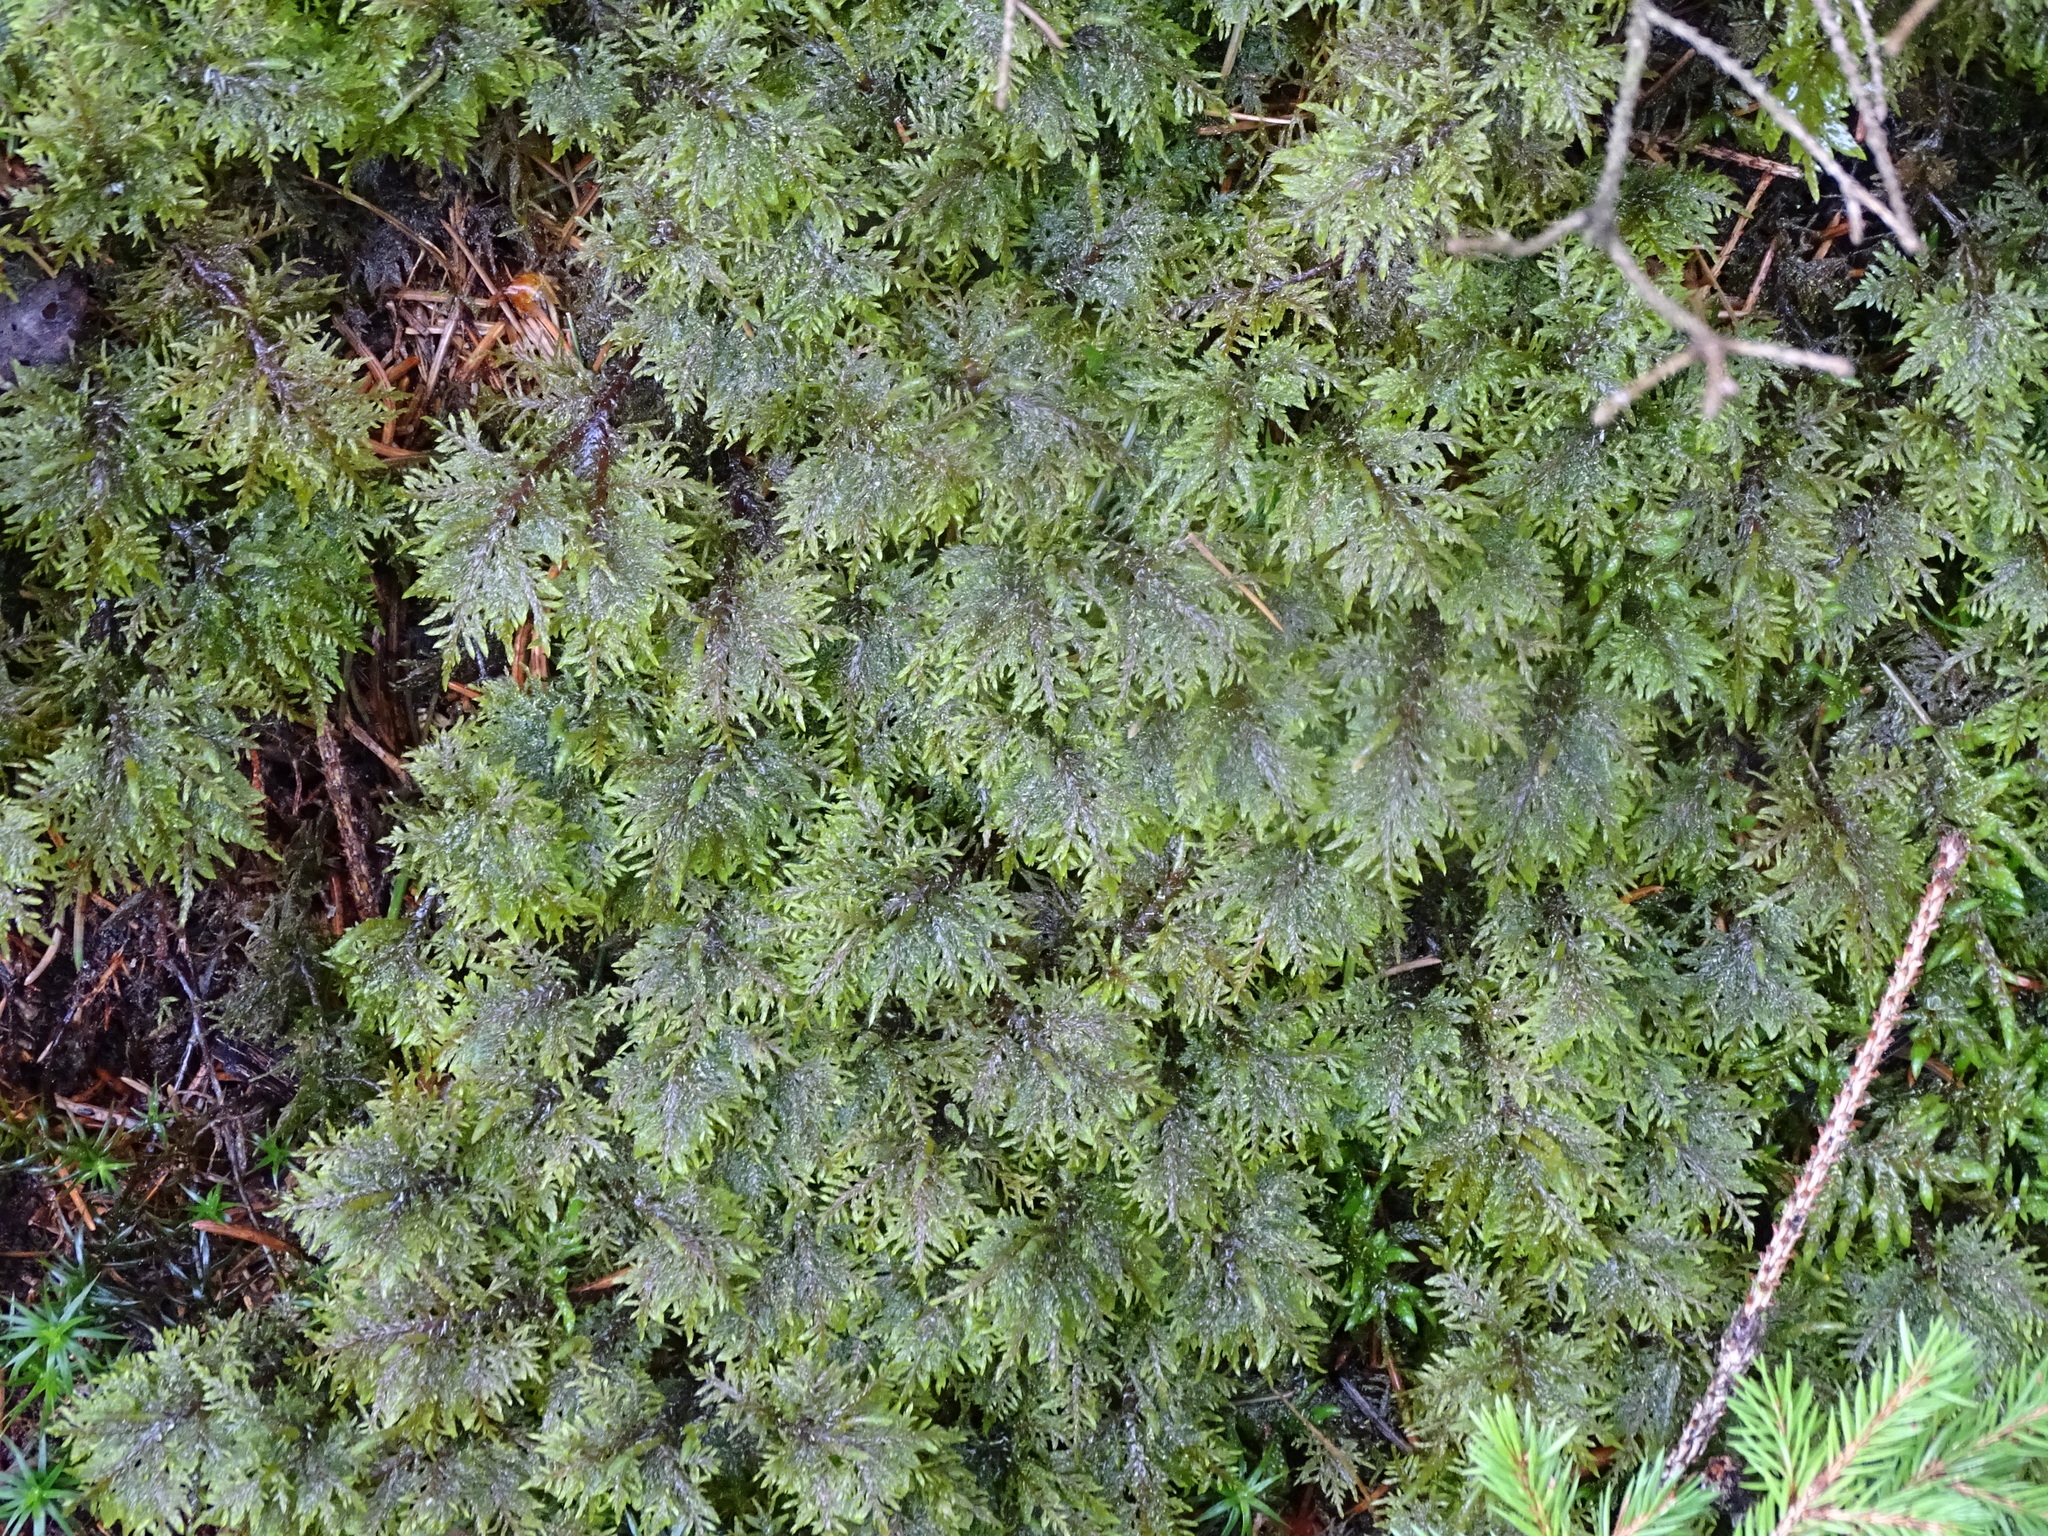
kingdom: Plantae
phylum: Bryophyta
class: Bryopsida
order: Hypnales
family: Hylocomiaceae
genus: Hylocomium
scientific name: Hylocomium splendens
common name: Stairstep moss
